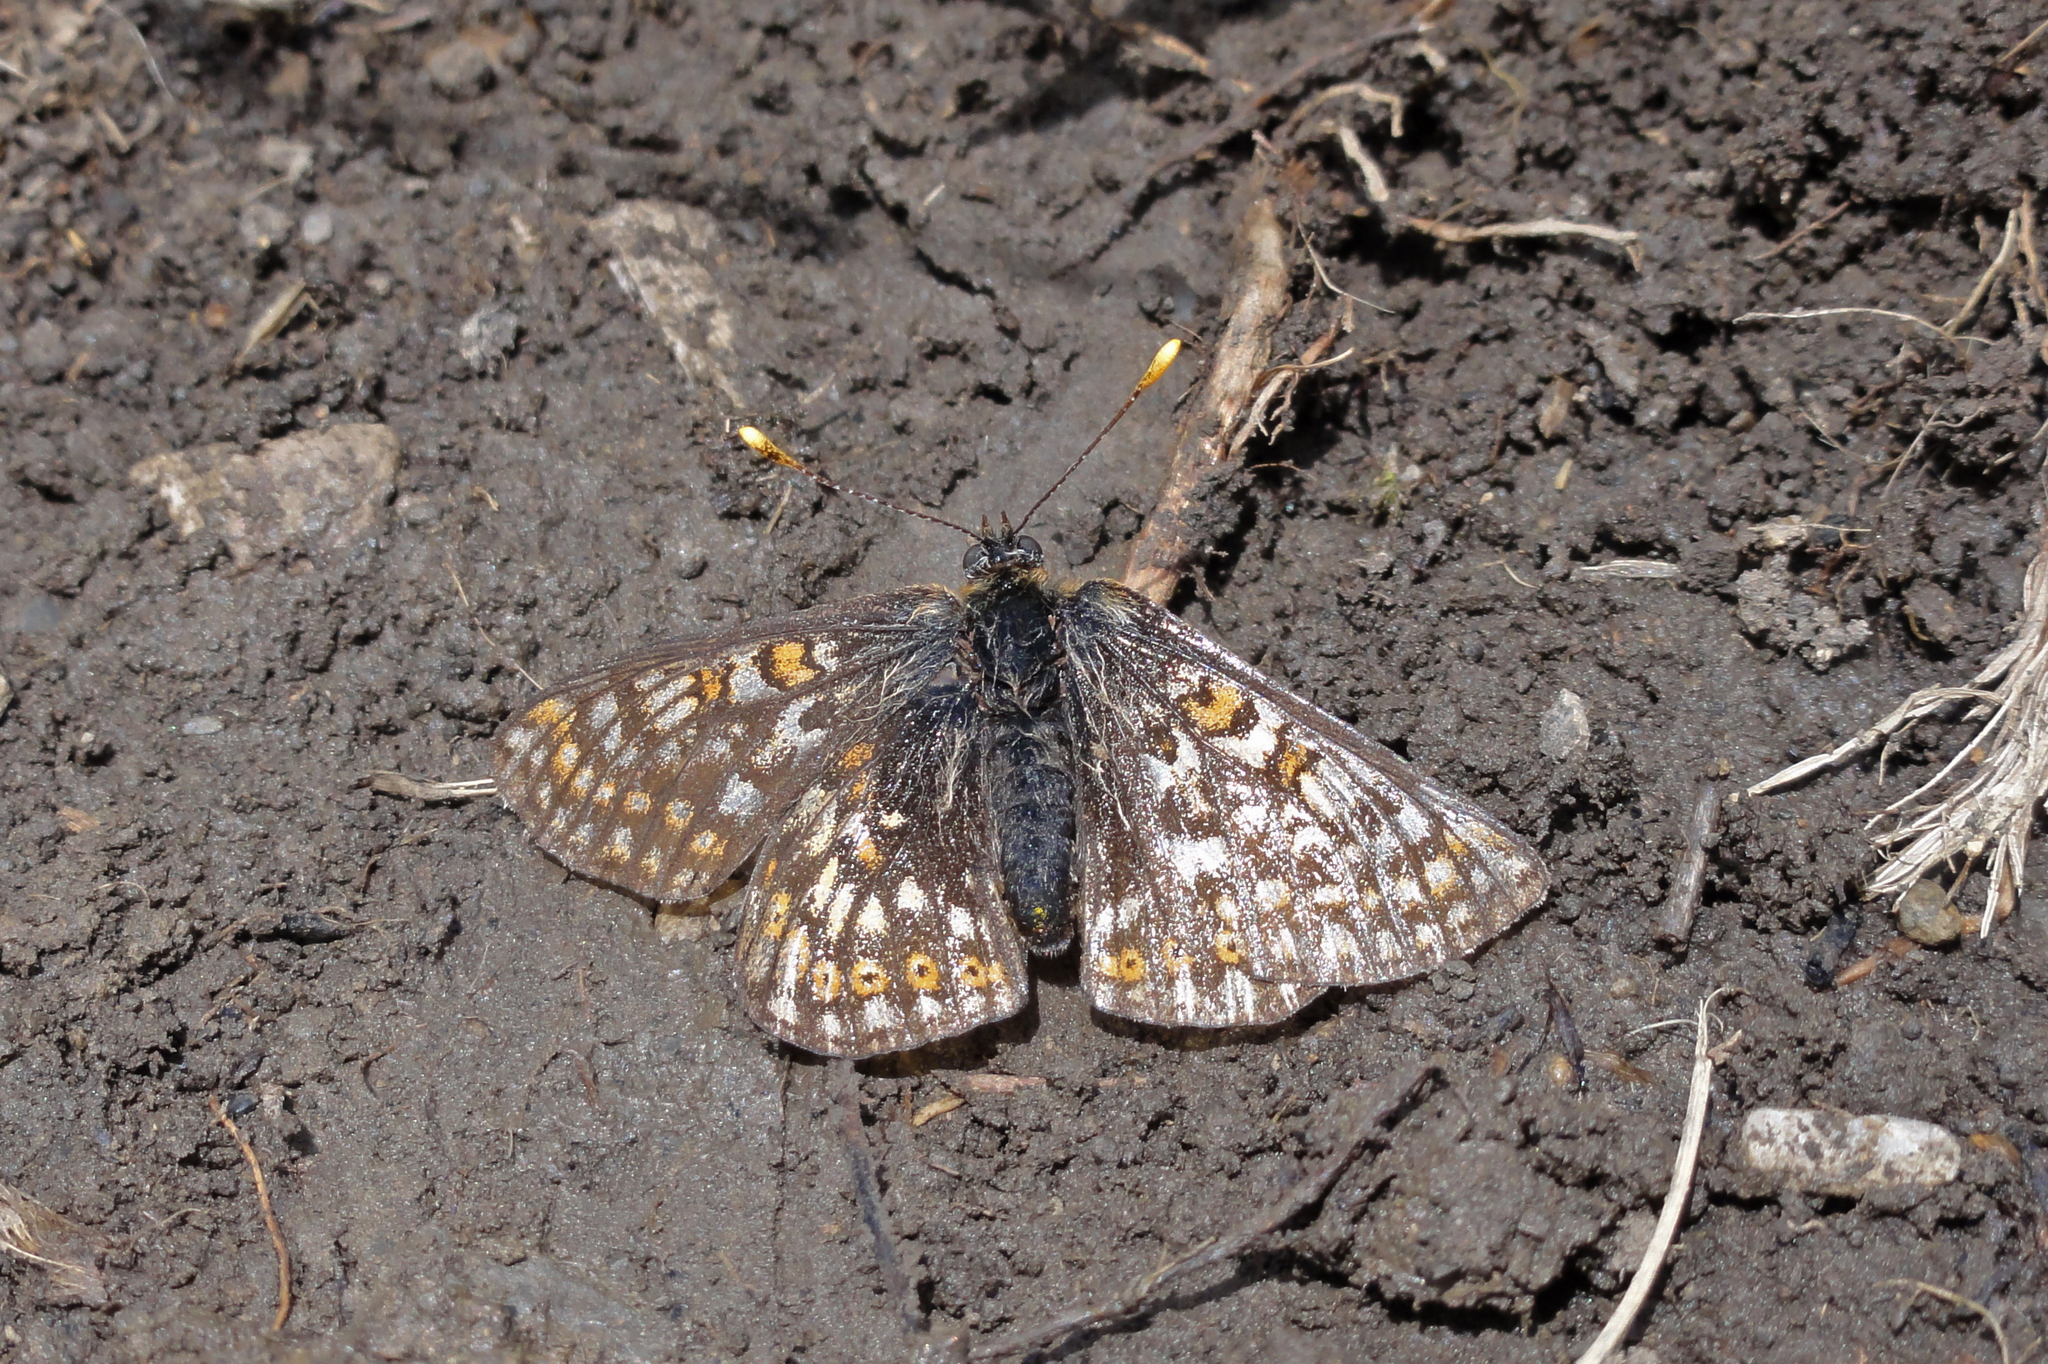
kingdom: Animalia
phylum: Arthropoda
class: Insecta
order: Lepidoptera
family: Nymphalidae
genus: Euphydryas
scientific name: Euphydryas aurinia
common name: Marsh fritillary
